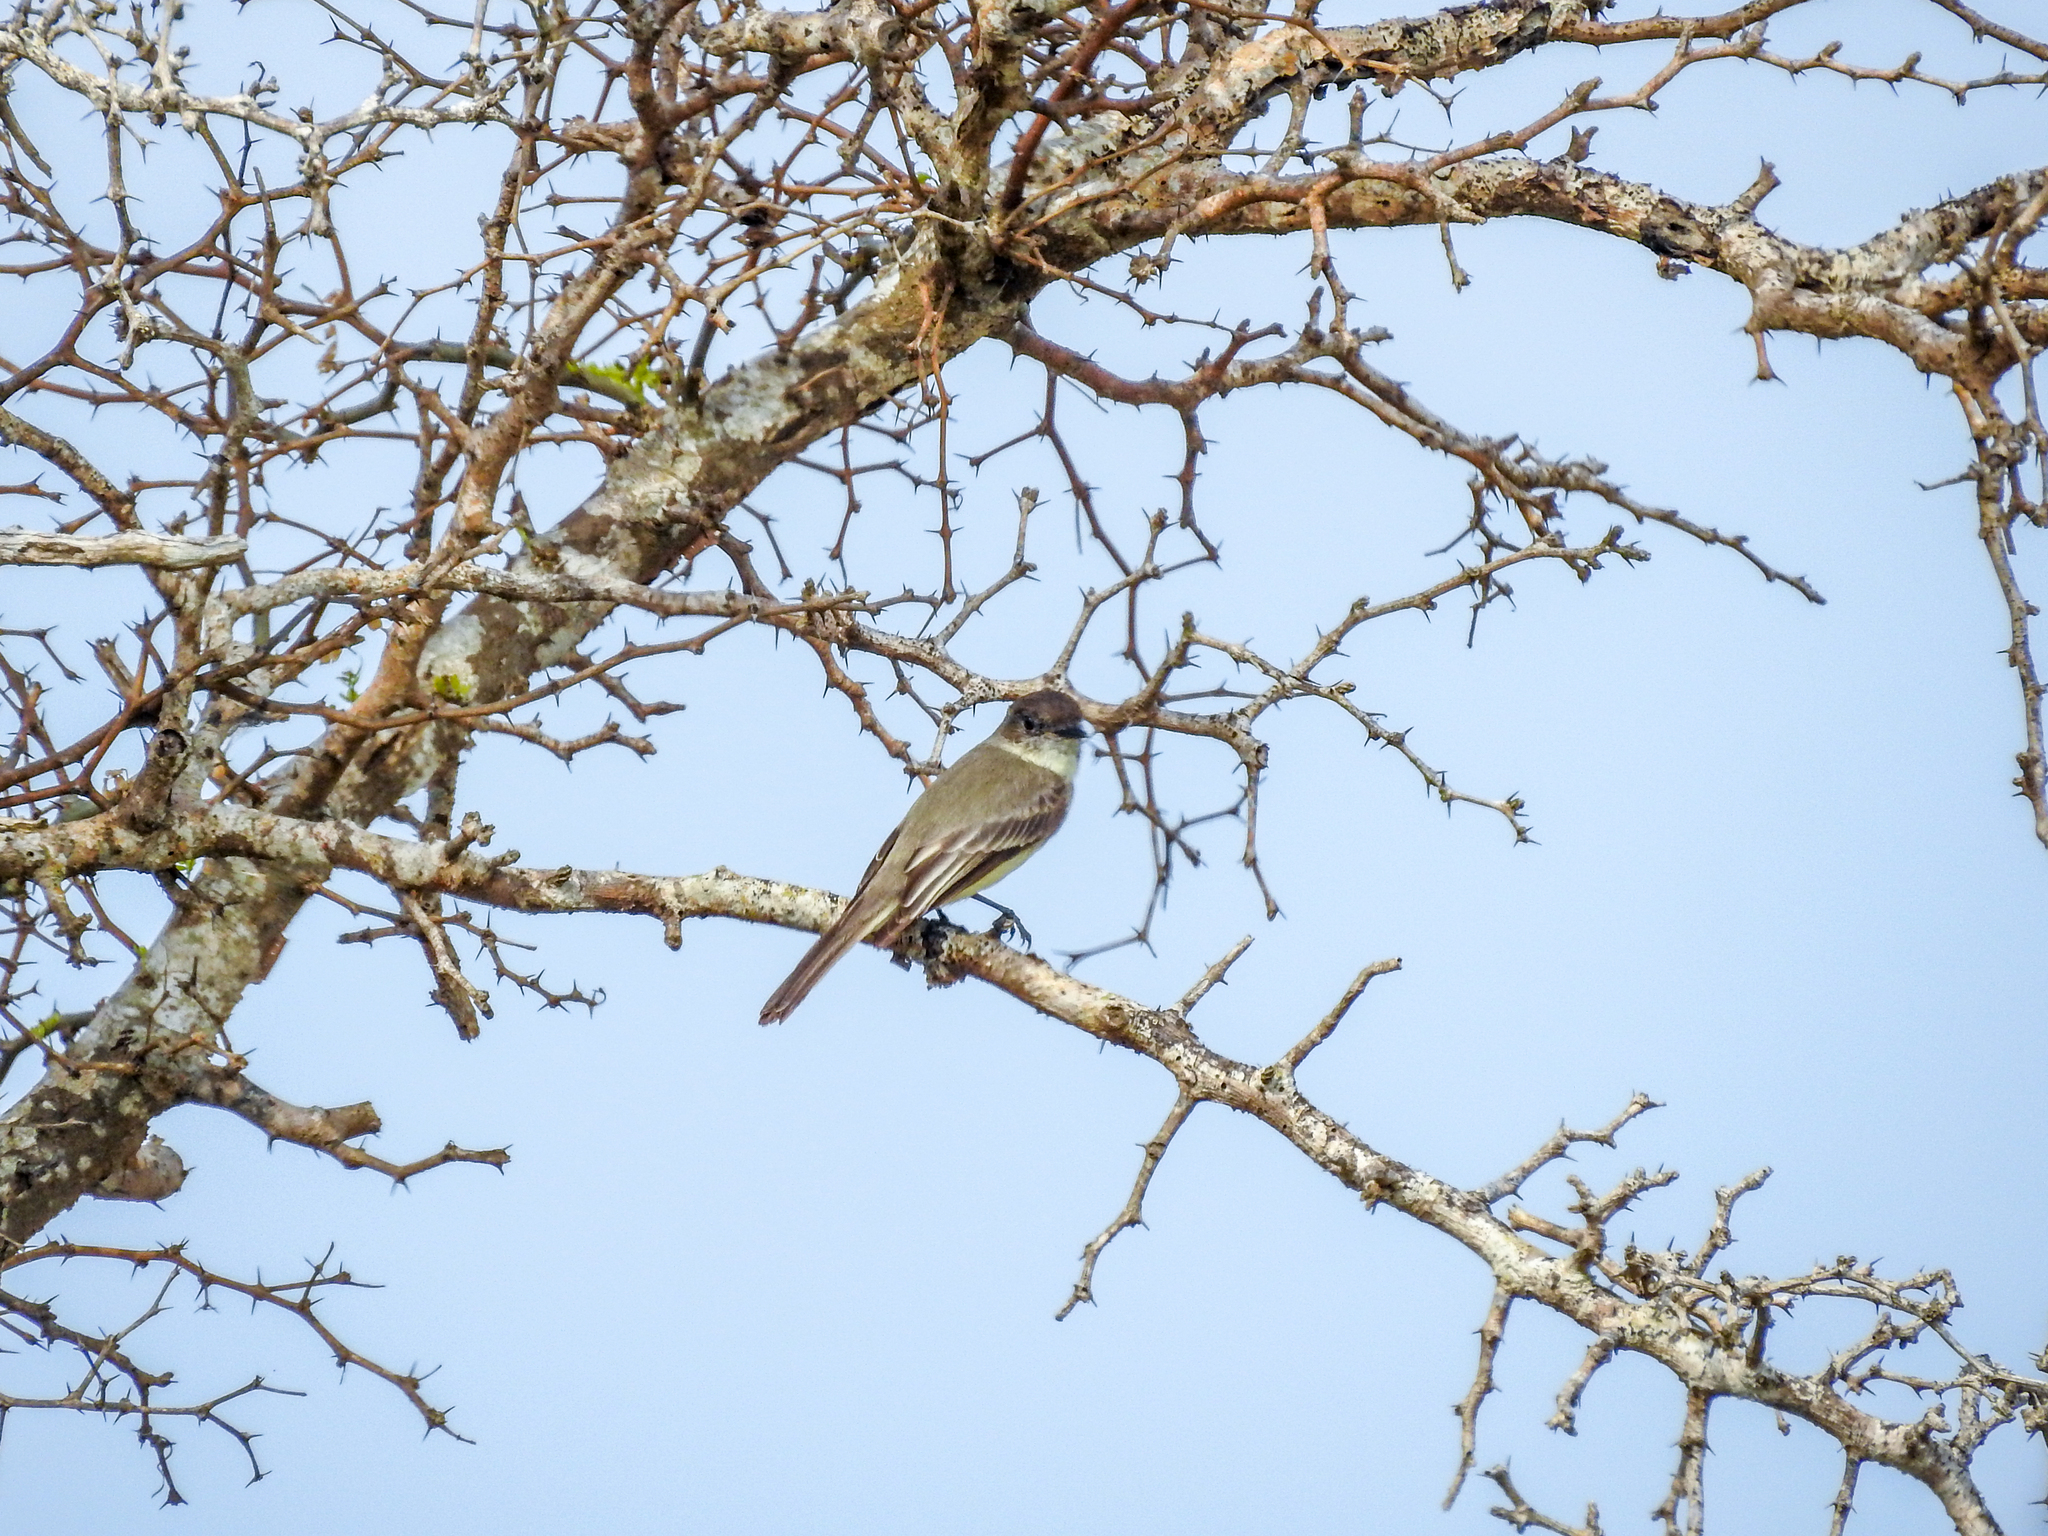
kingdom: Animalia
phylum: Chordata
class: Aves
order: Passeriformes
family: Tyrannidae
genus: Sayornis
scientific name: Sayornis phoebe
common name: Eastern phoebe
